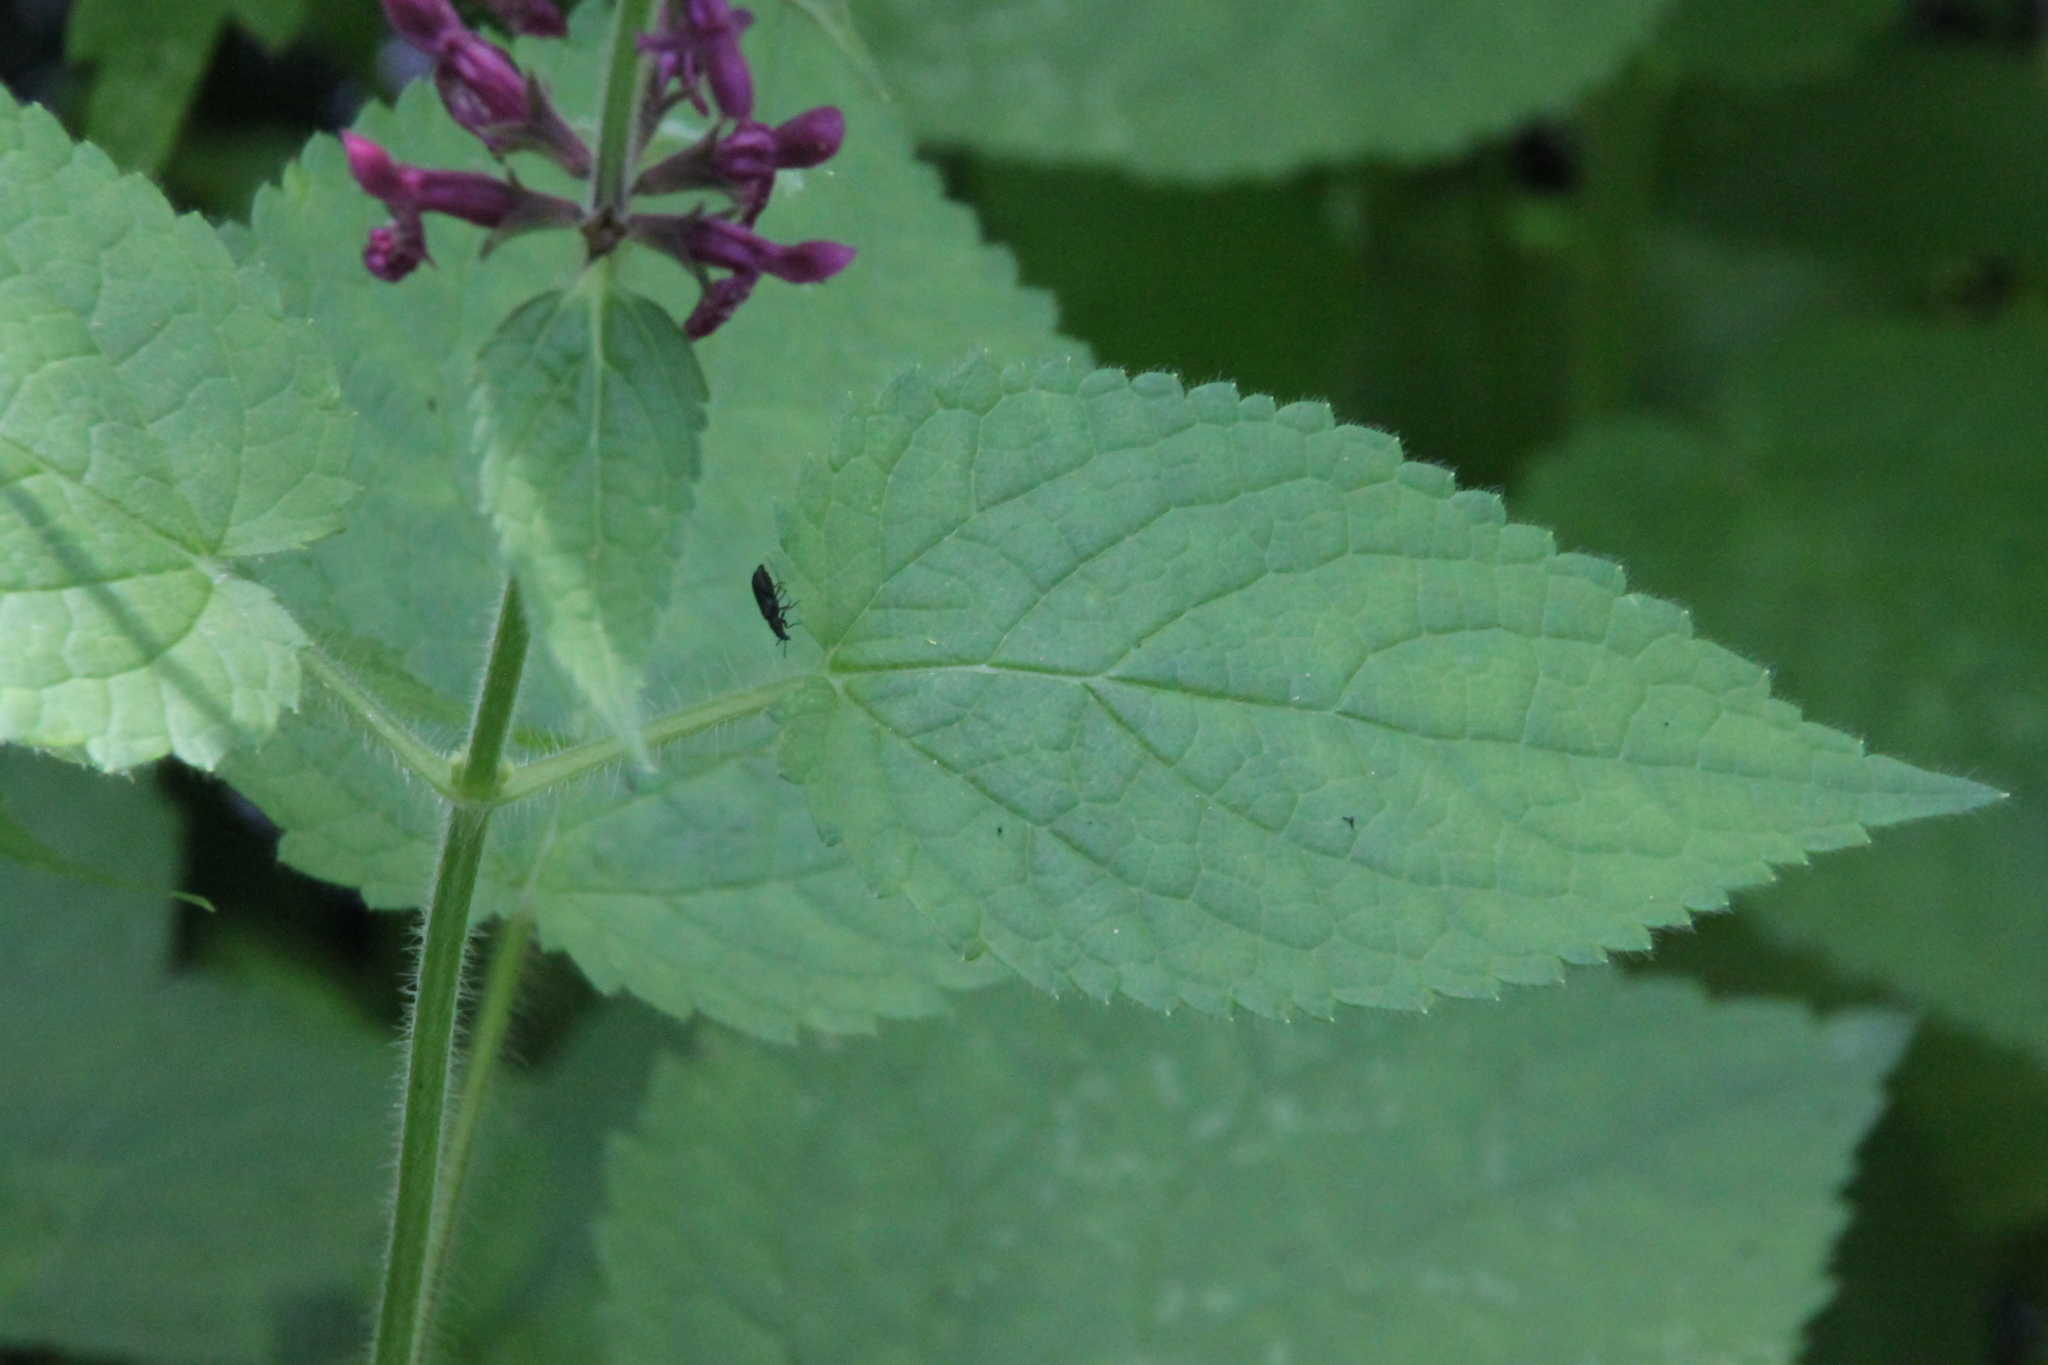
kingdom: Plantae
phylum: Tracheophyta
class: Magnoliopsida
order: Lamiales
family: Lamiaceae
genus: Stachys
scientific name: Stachys sylvatica
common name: Hedge woundwort
